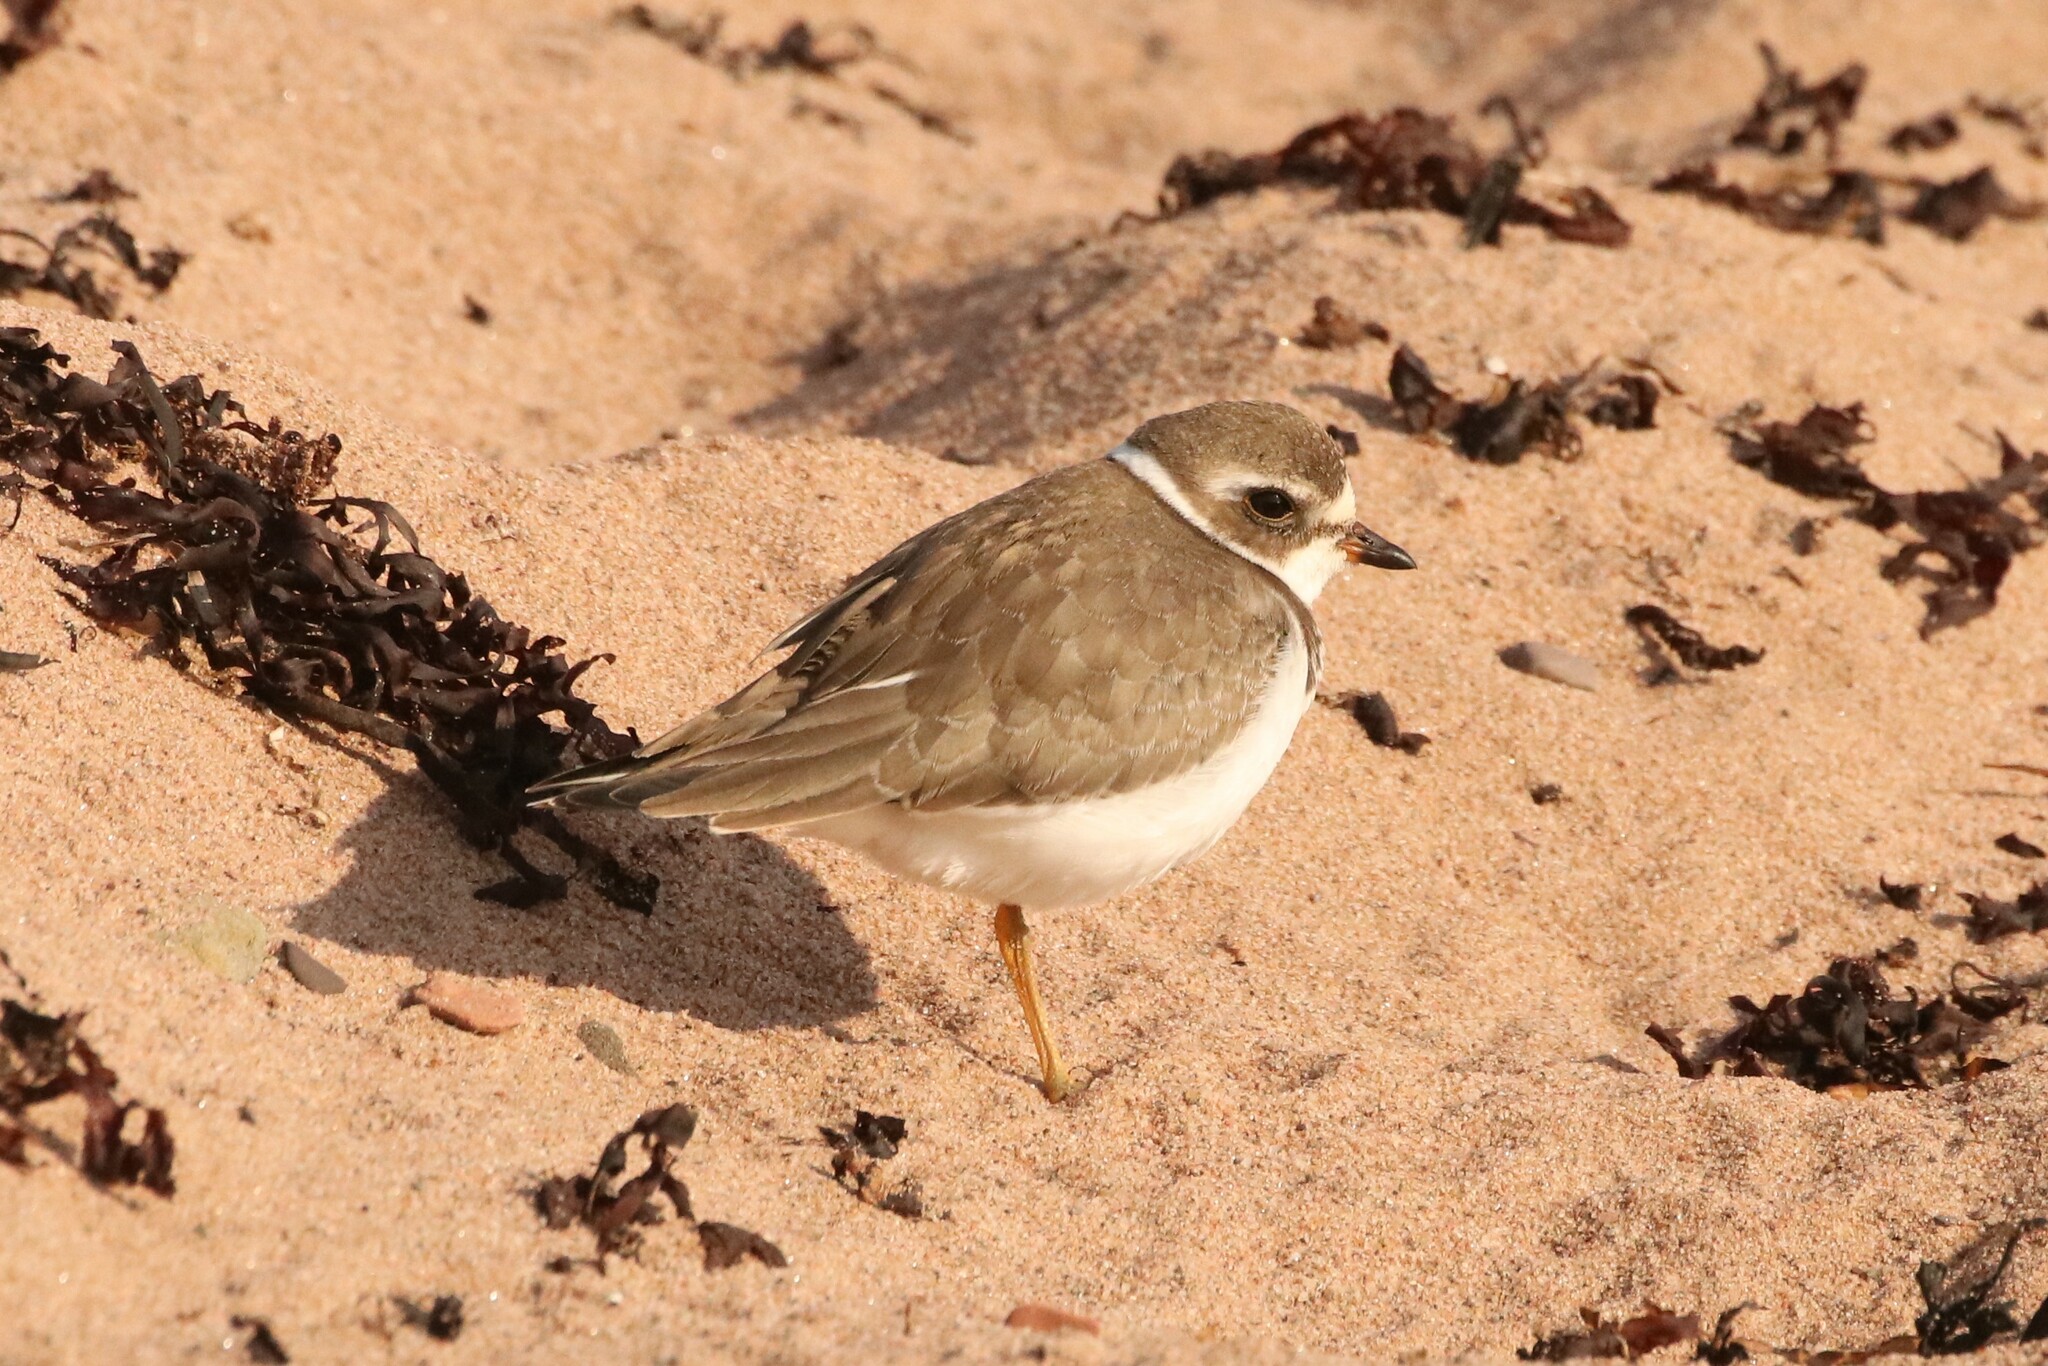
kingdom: Animalia
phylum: Chordata
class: Aves
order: Charadriiformes
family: Charadriidae
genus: Charadrius
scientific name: Charadrius semipalmatus
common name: Semipalmated plover
